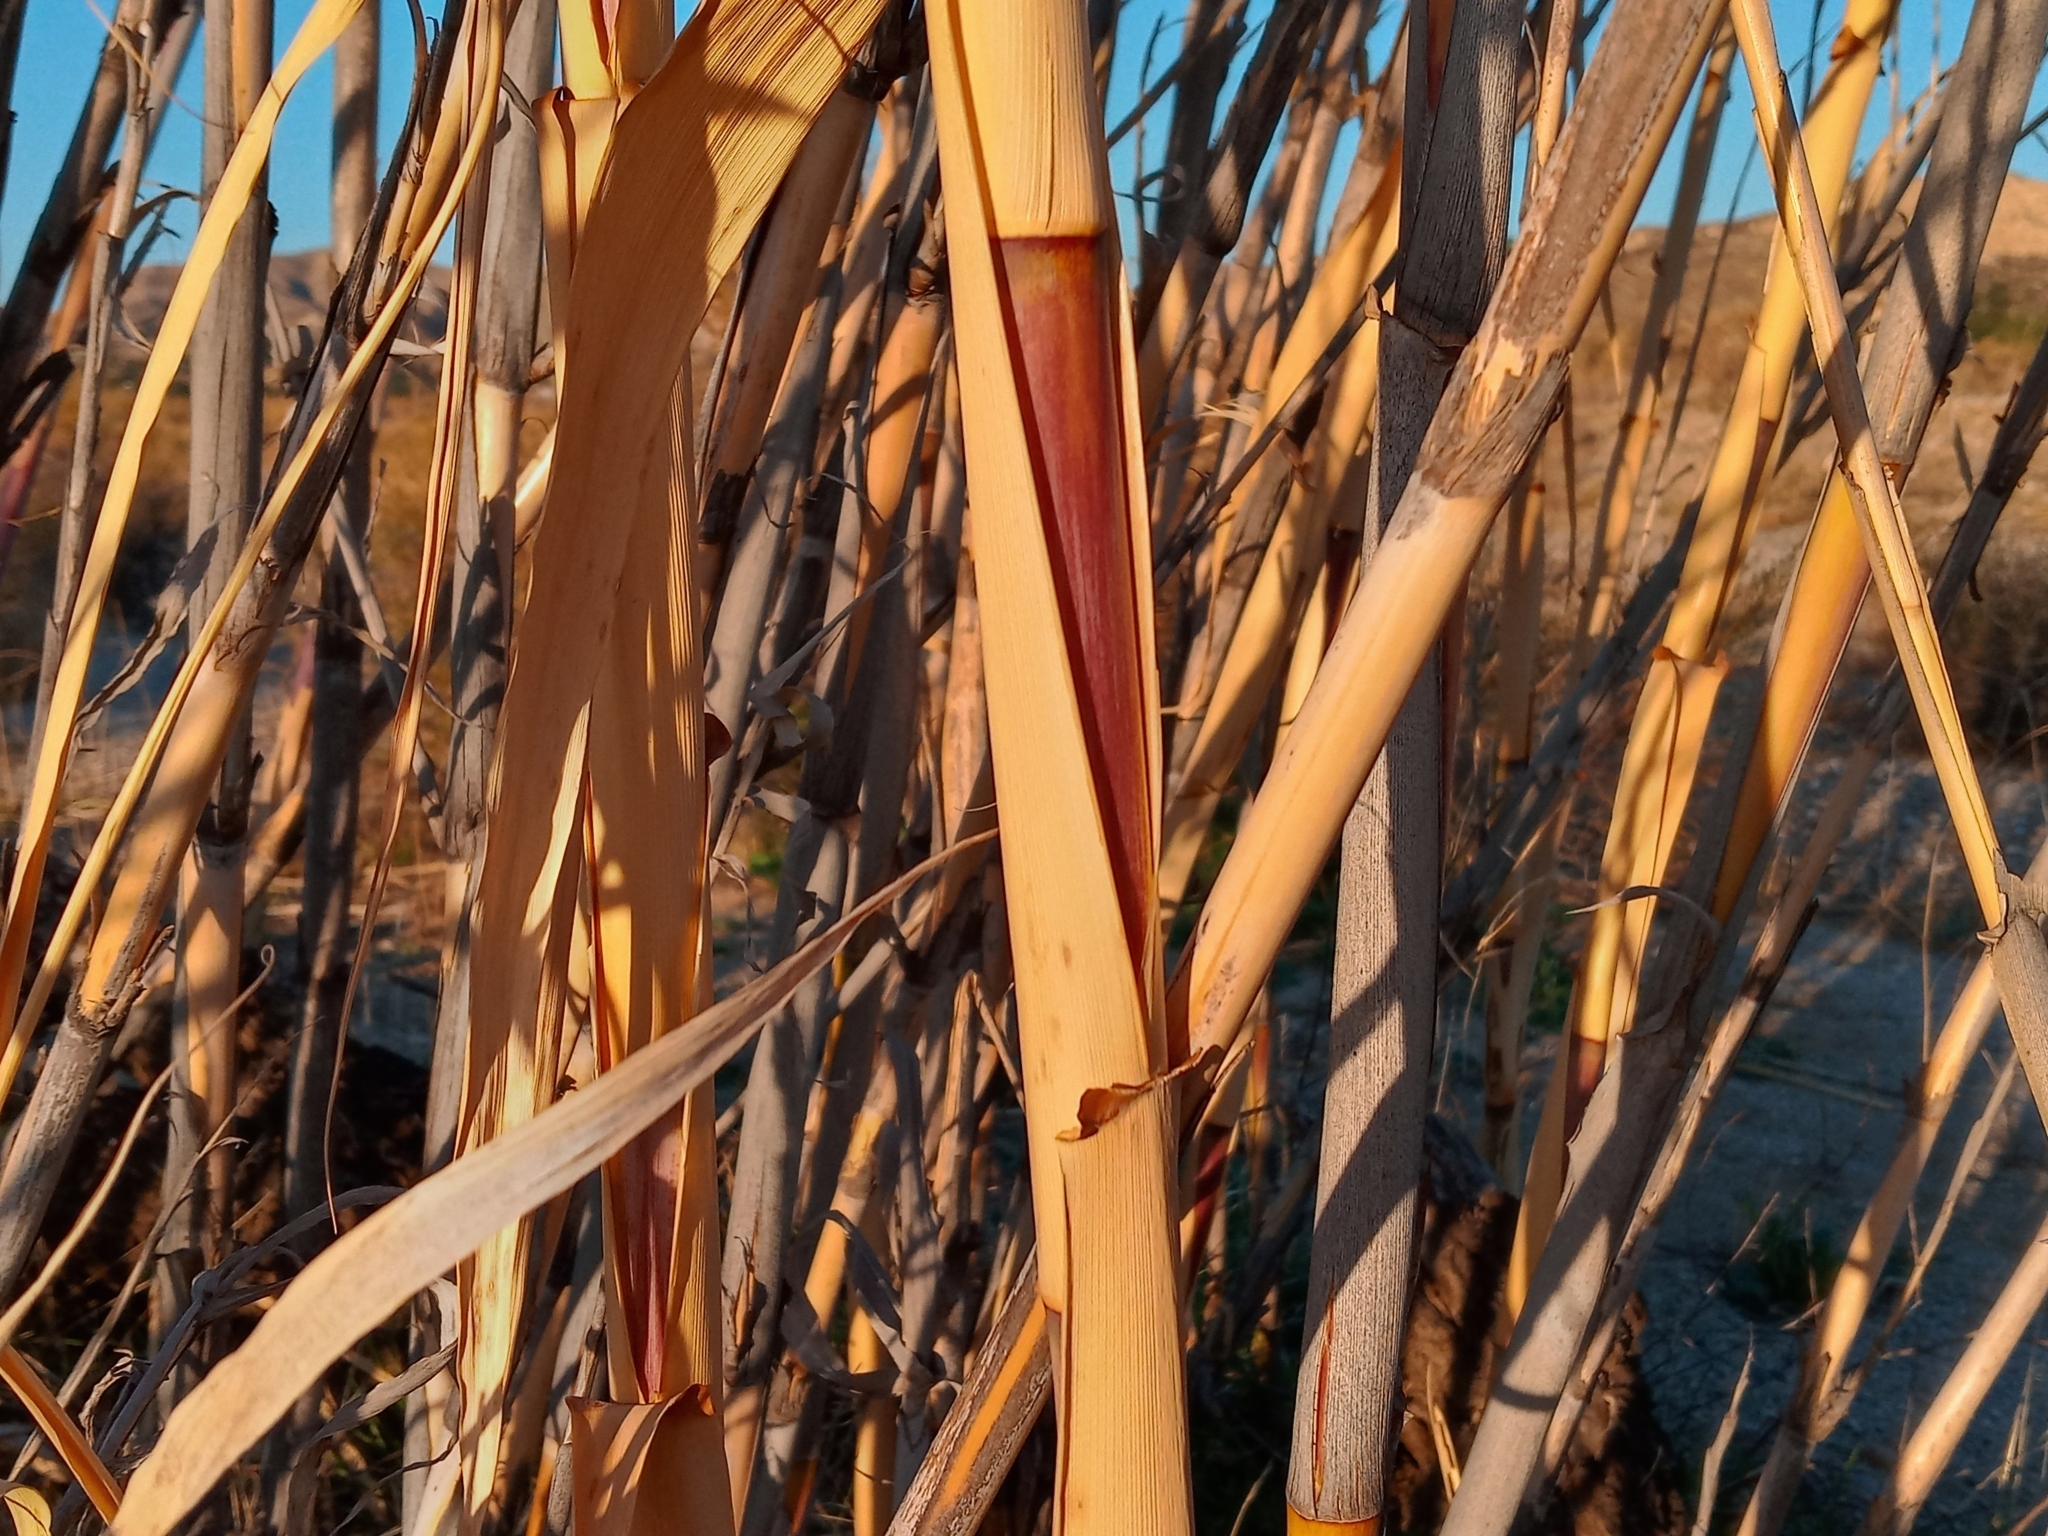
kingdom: Plantae
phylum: Tracheophyta
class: Liliopsida
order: Poales
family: Poaceae
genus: Arundo
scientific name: Arundo donax
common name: Giant reed
